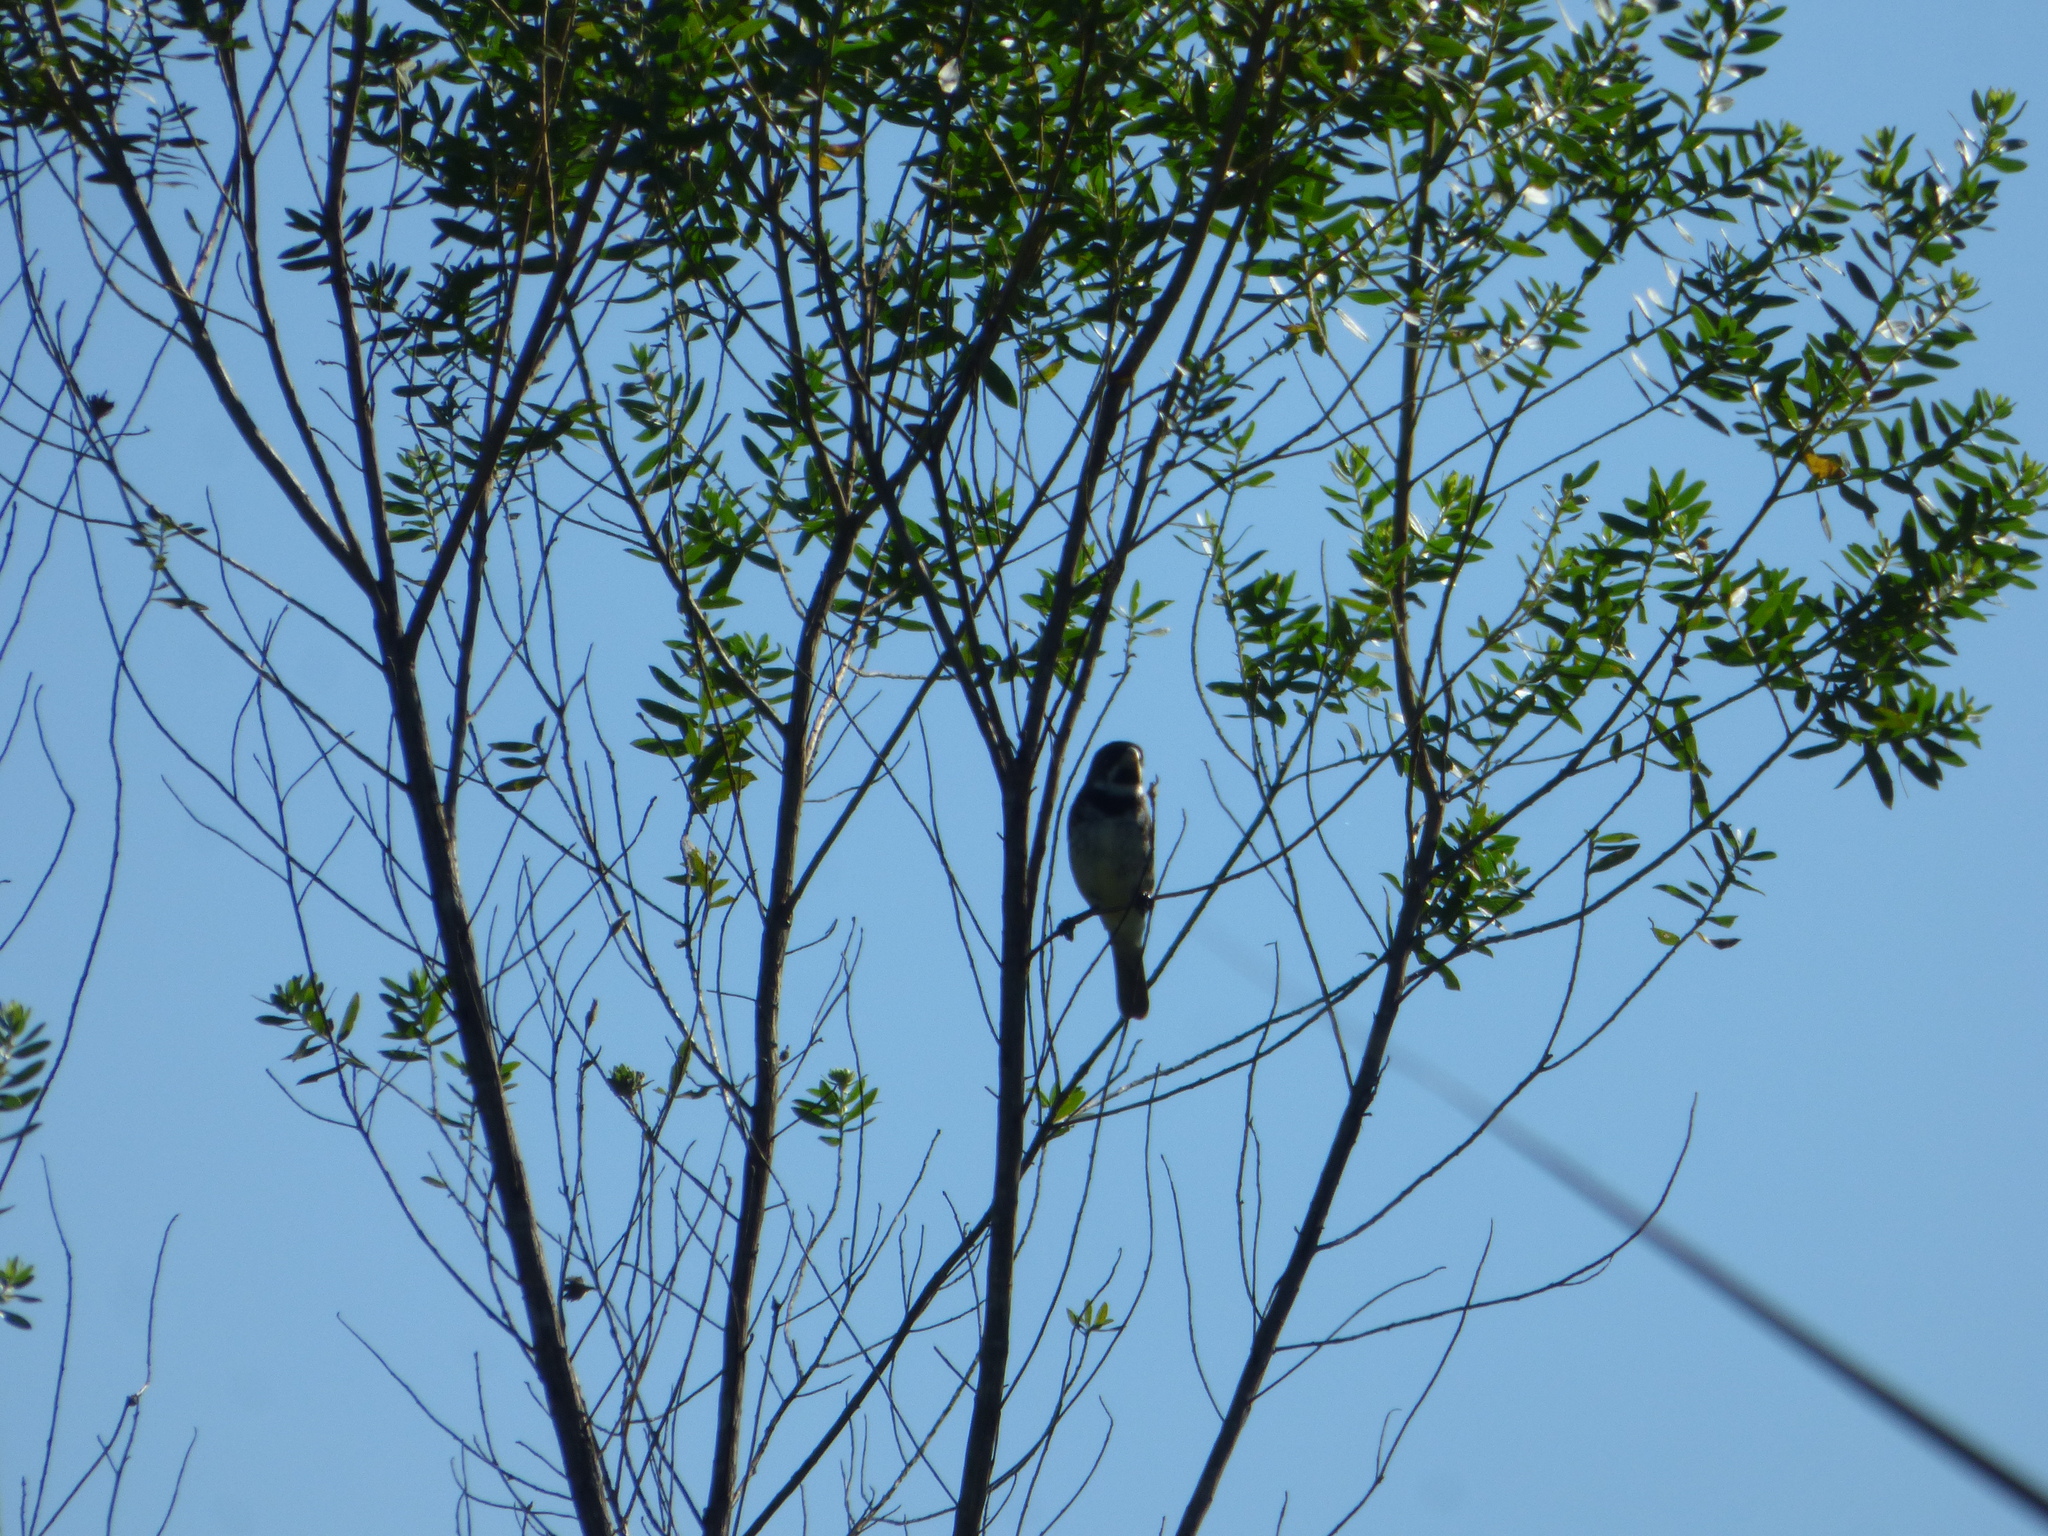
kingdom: Animalia
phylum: Chordata
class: Aves
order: Passeriformes
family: Thraupidae
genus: Sporophila
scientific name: Sporophila caerulescens
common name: Double-collared seedeater
